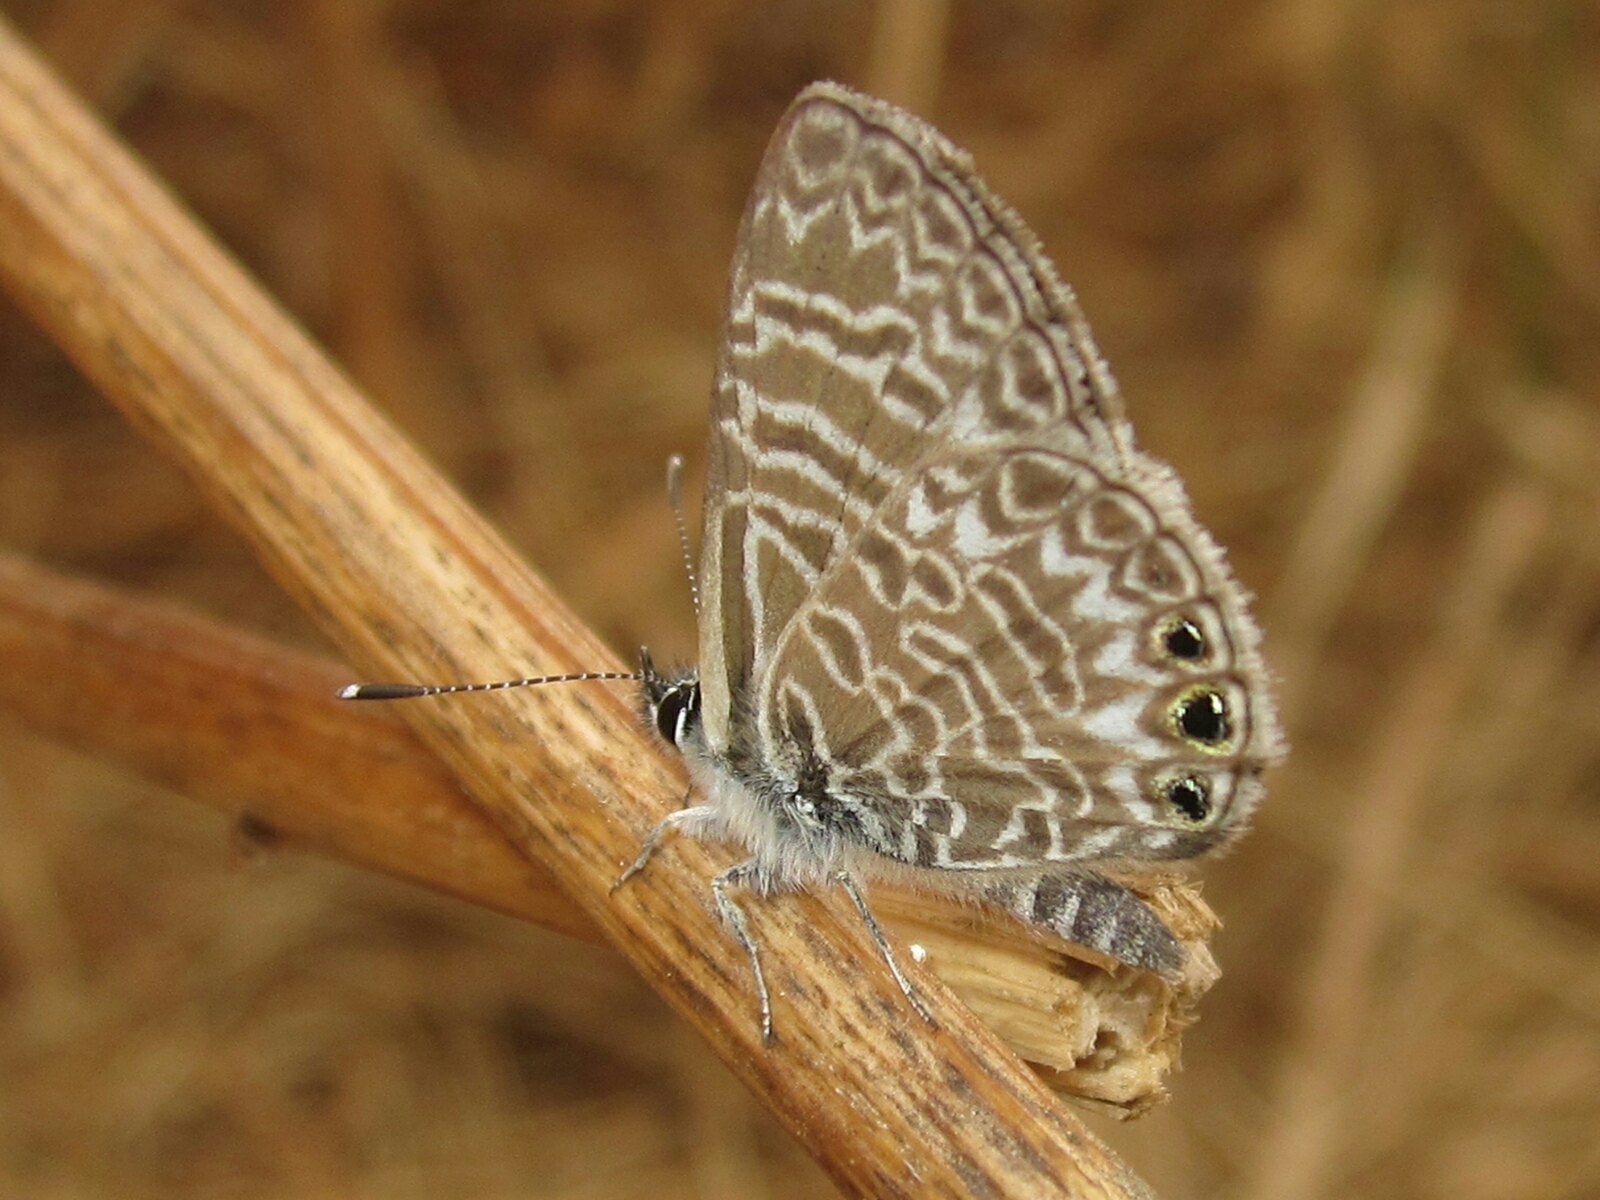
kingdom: Animalia
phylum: Arthropoda
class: Insecta
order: Lepidoptera
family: Lycaenidae
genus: Leptotes
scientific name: Leptotes trigemmatus
